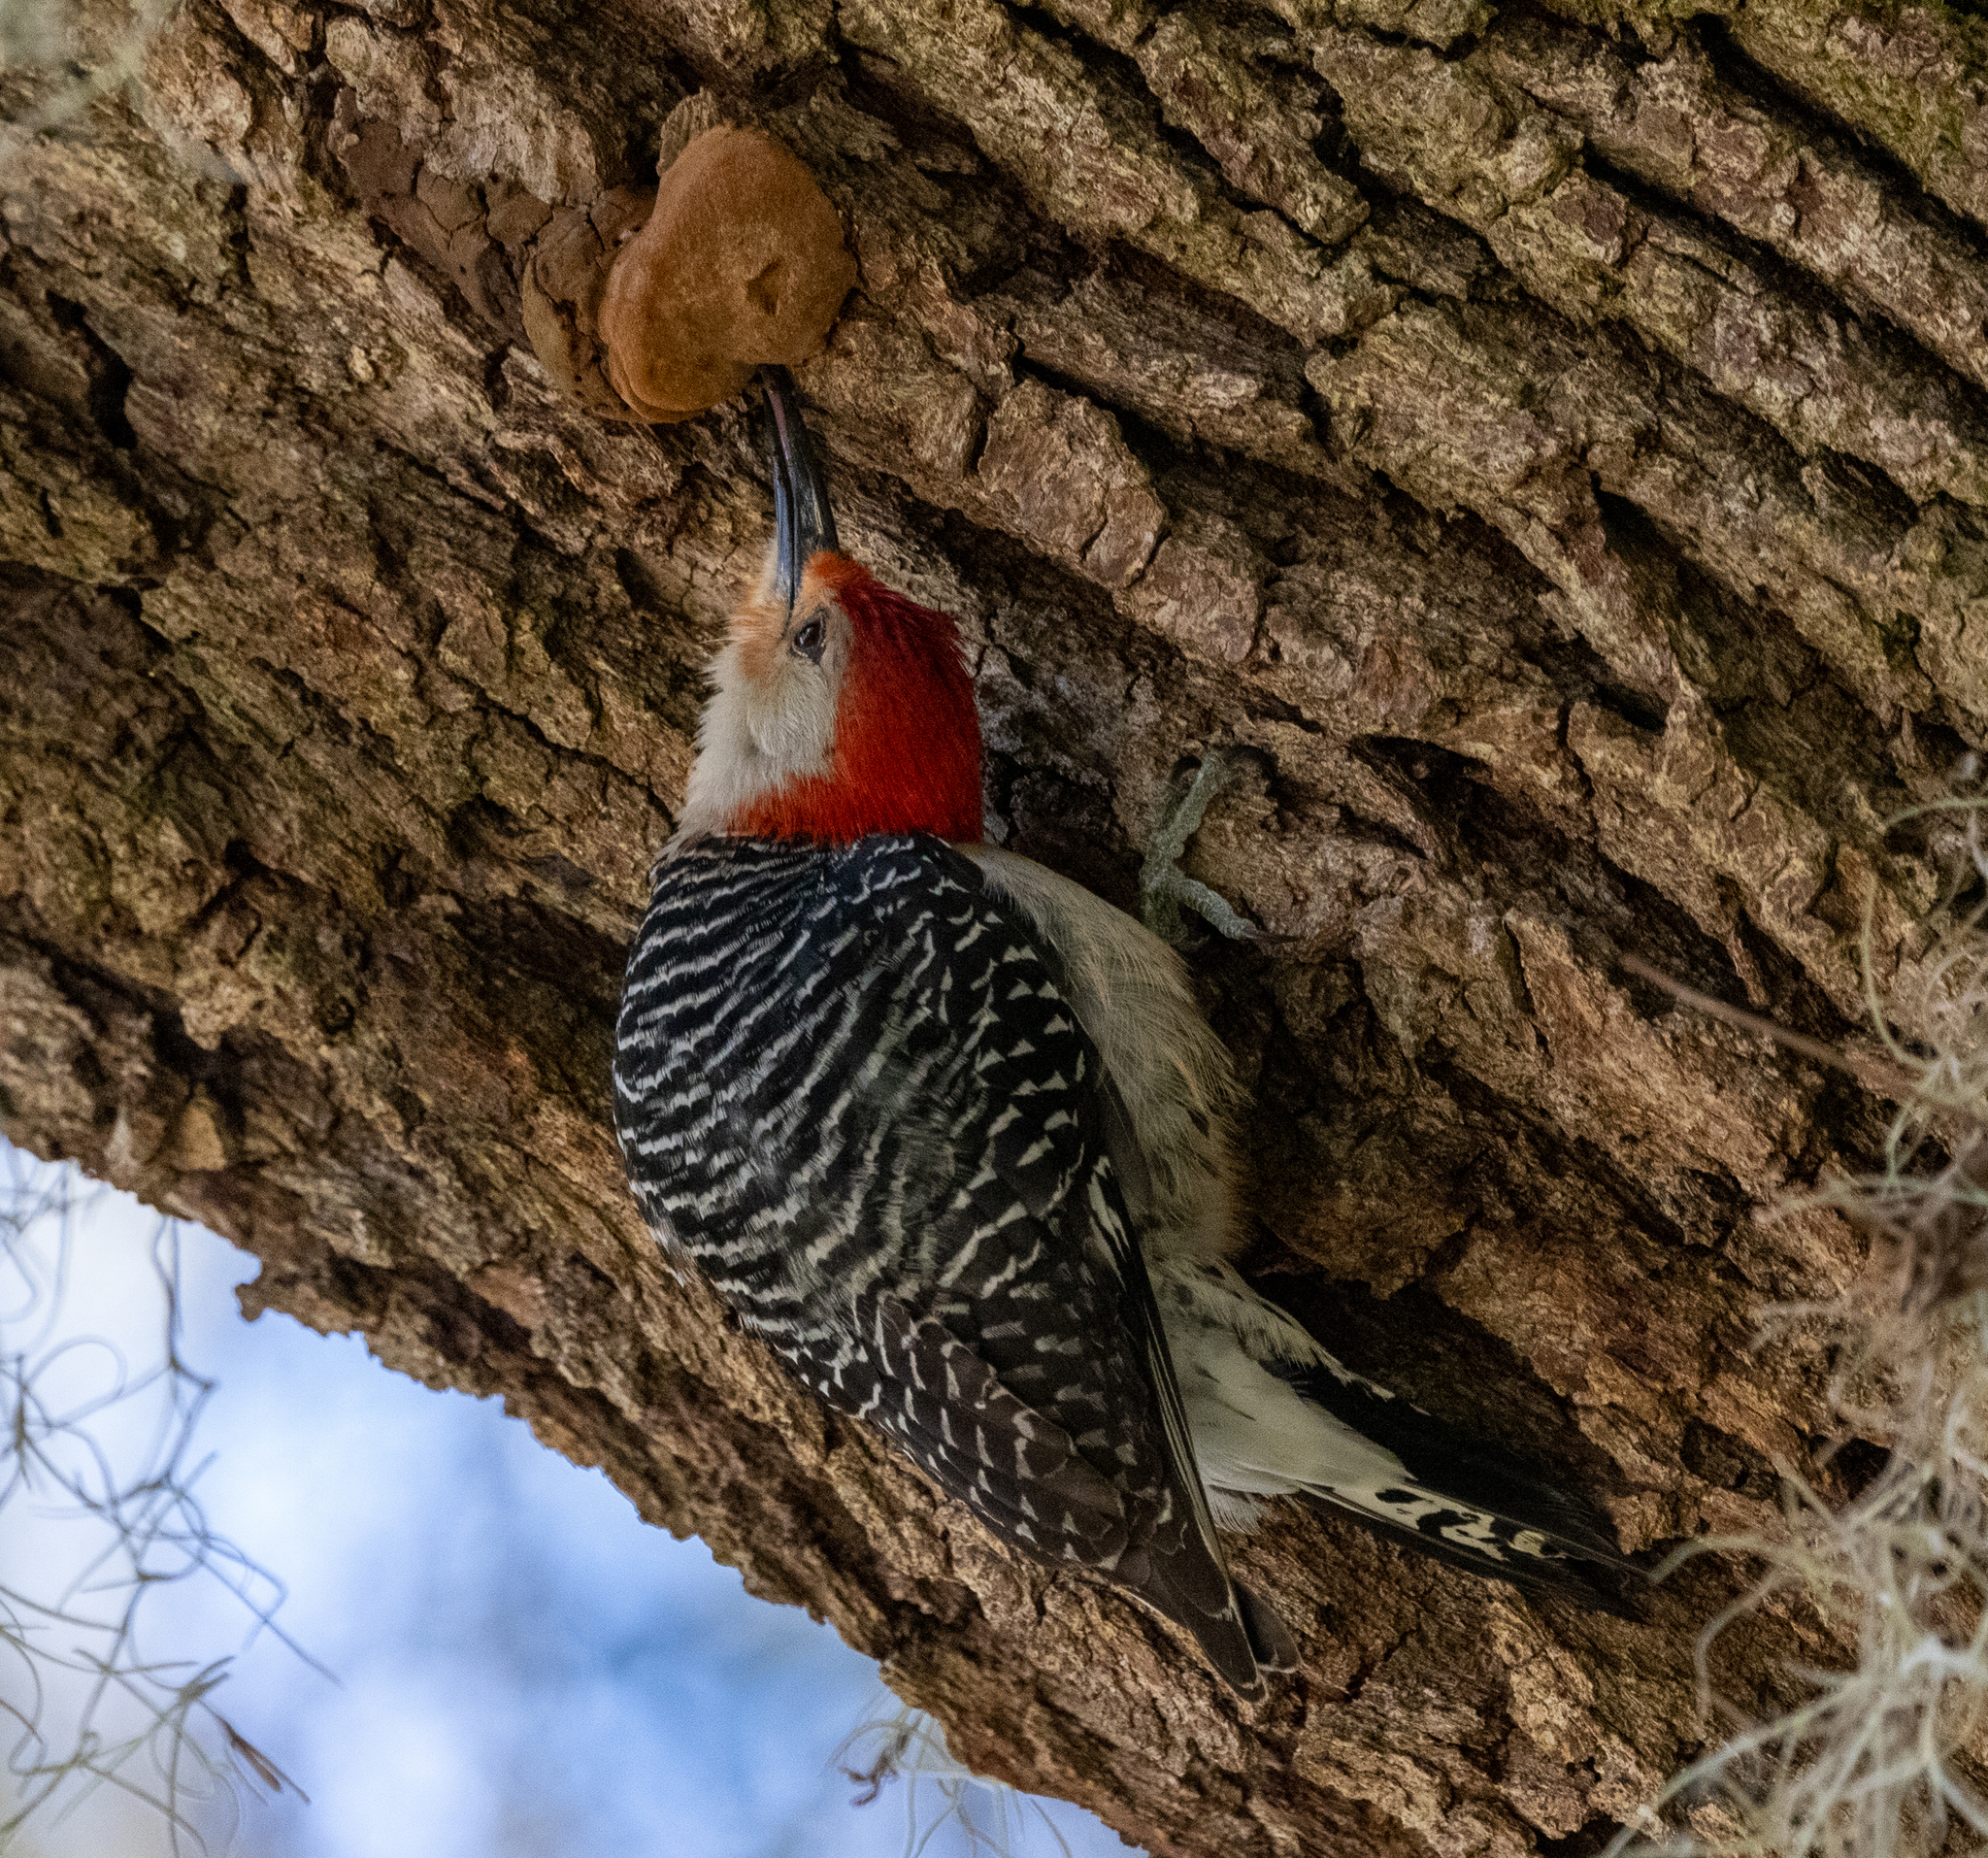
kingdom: Animalia
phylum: Chordata
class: Aves
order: Piciformes
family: Picidae
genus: Melanerpes
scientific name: Melanerpes carolinus
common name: Red-bellied woodpecker
